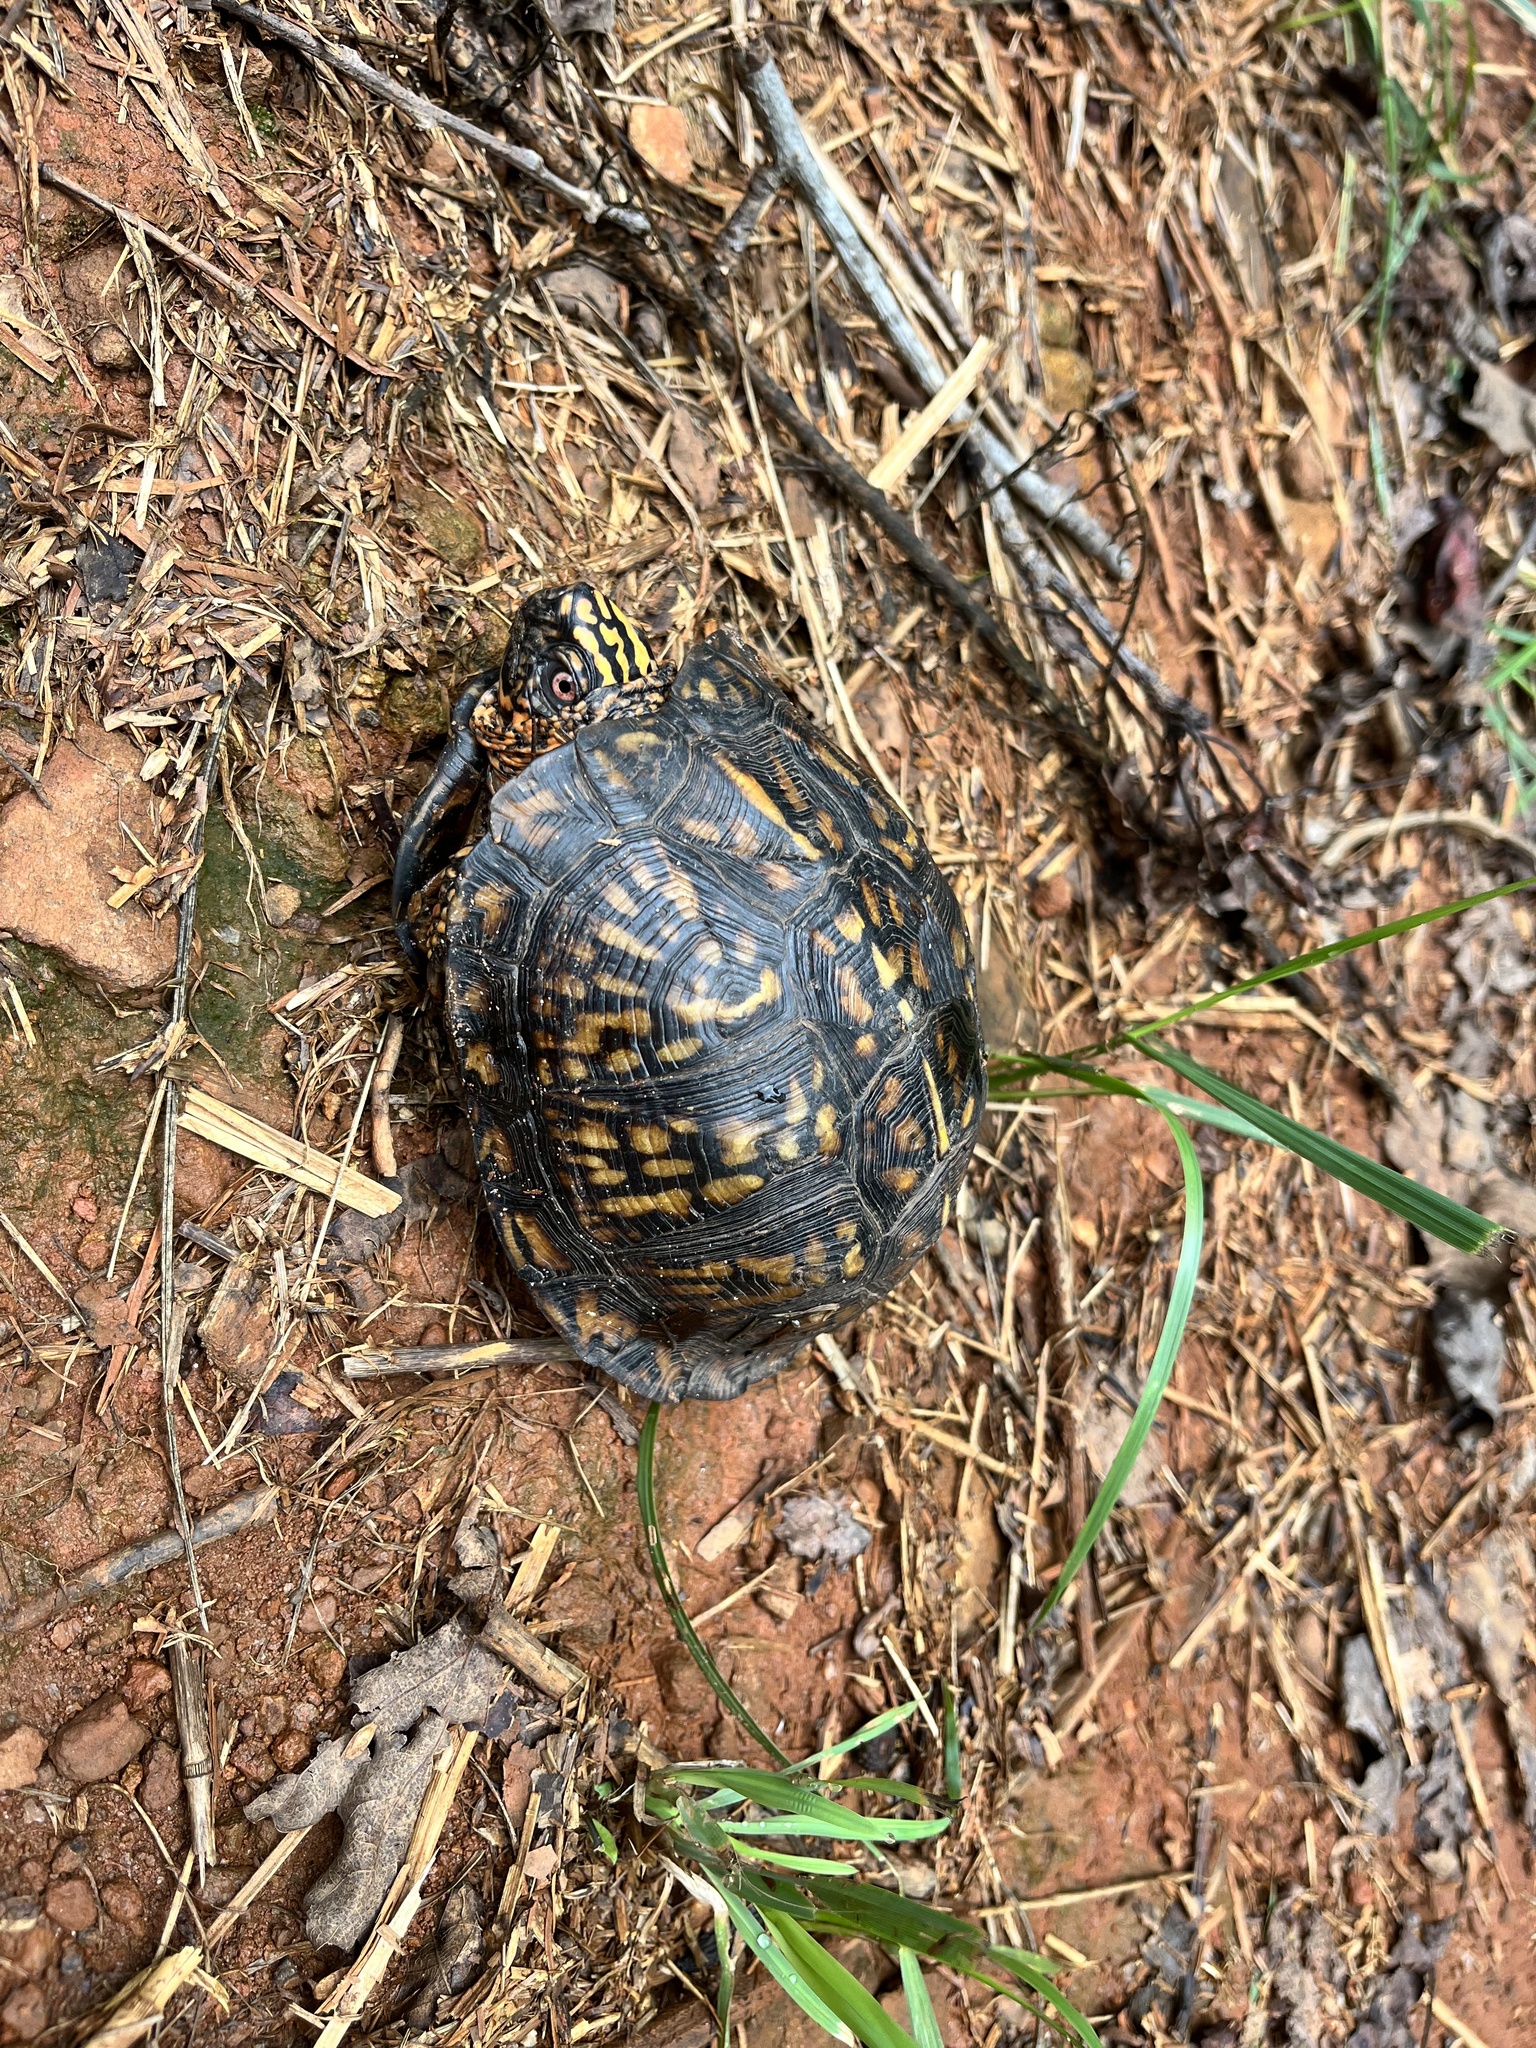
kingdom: Animalia
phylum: Chordata
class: Testudines
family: Emydidae
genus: Terrapene
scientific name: Terrapene carolina
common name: Common box turtle
